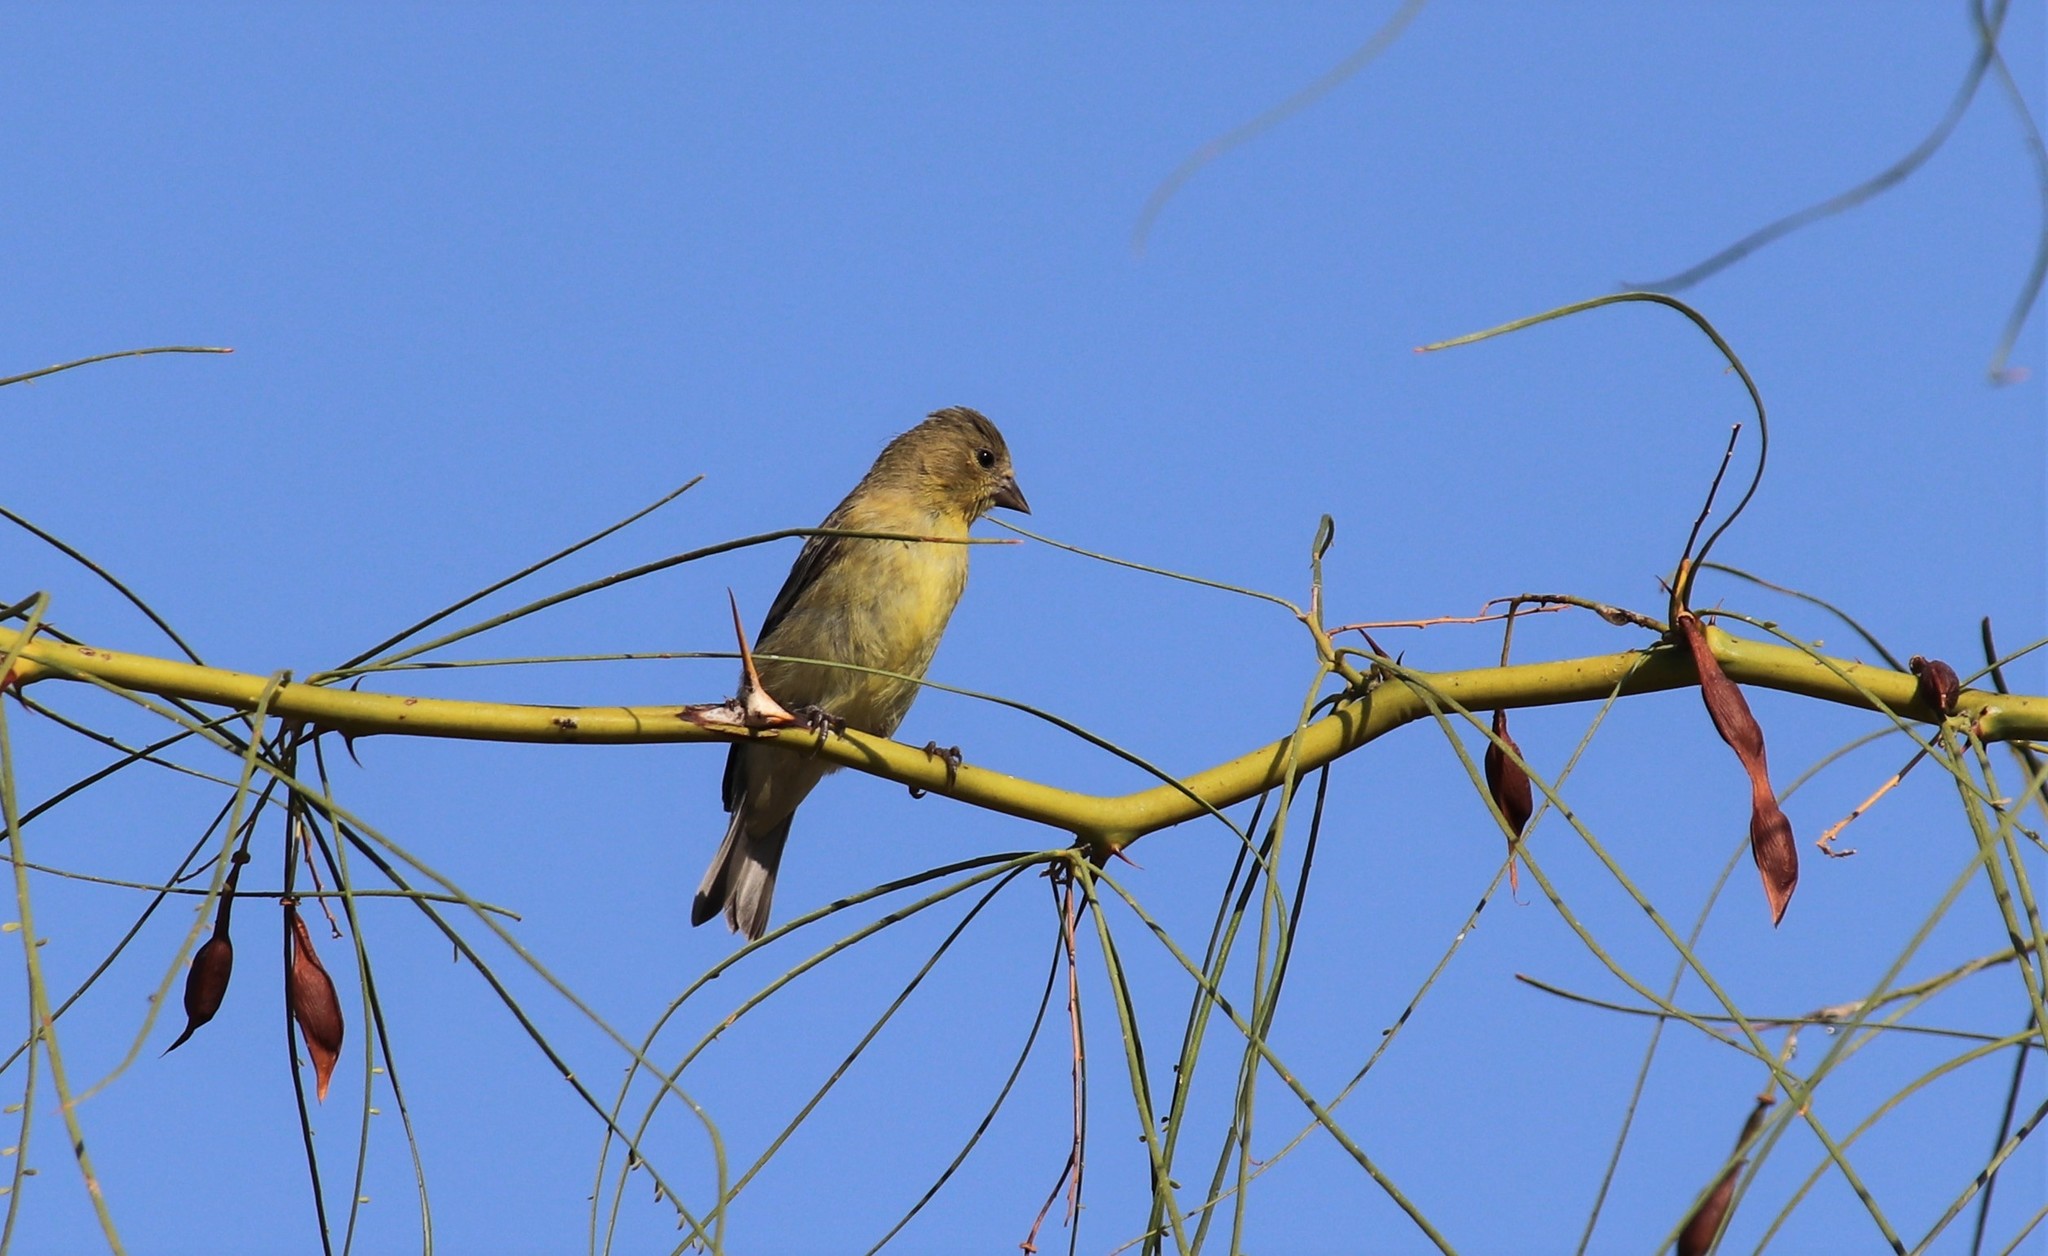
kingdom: Animalia
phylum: Chordata
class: Aves
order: Passeriformes
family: Fringillidae
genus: Spinus
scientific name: Spinus psaltria
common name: Lesser goldfinch
